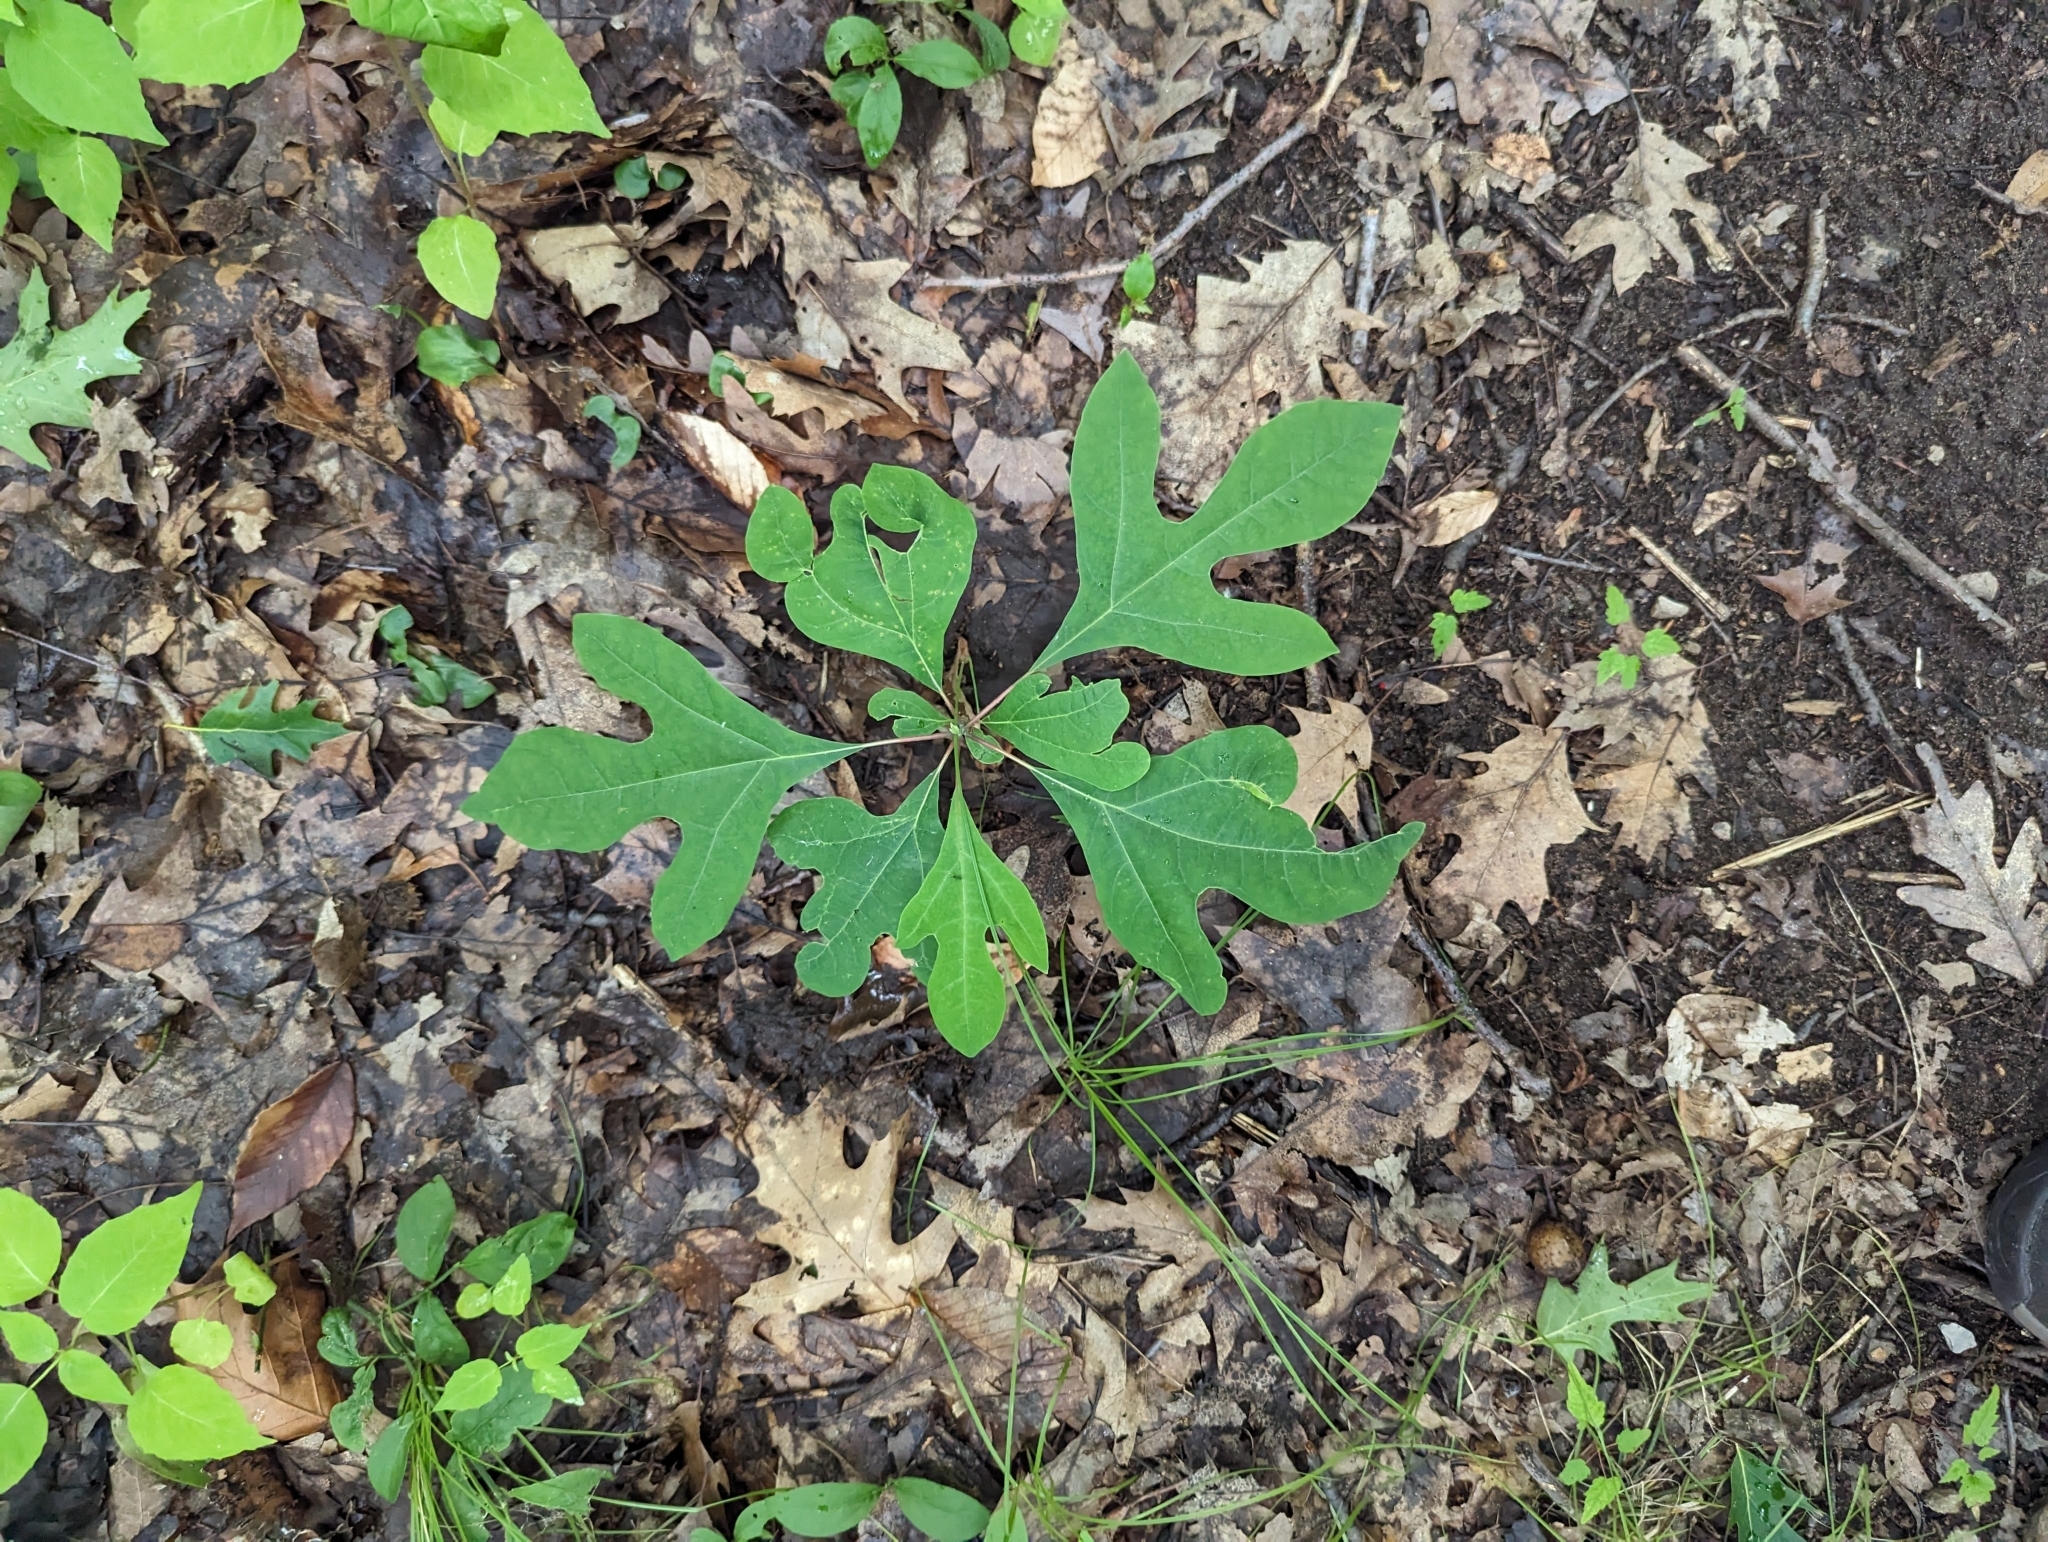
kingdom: Plantae
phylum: Tracheophyta
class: Magnoliopsida
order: Laurales
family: Lauraceae
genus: Sassafras
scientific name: Sassafras albidum
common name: Sassafras
